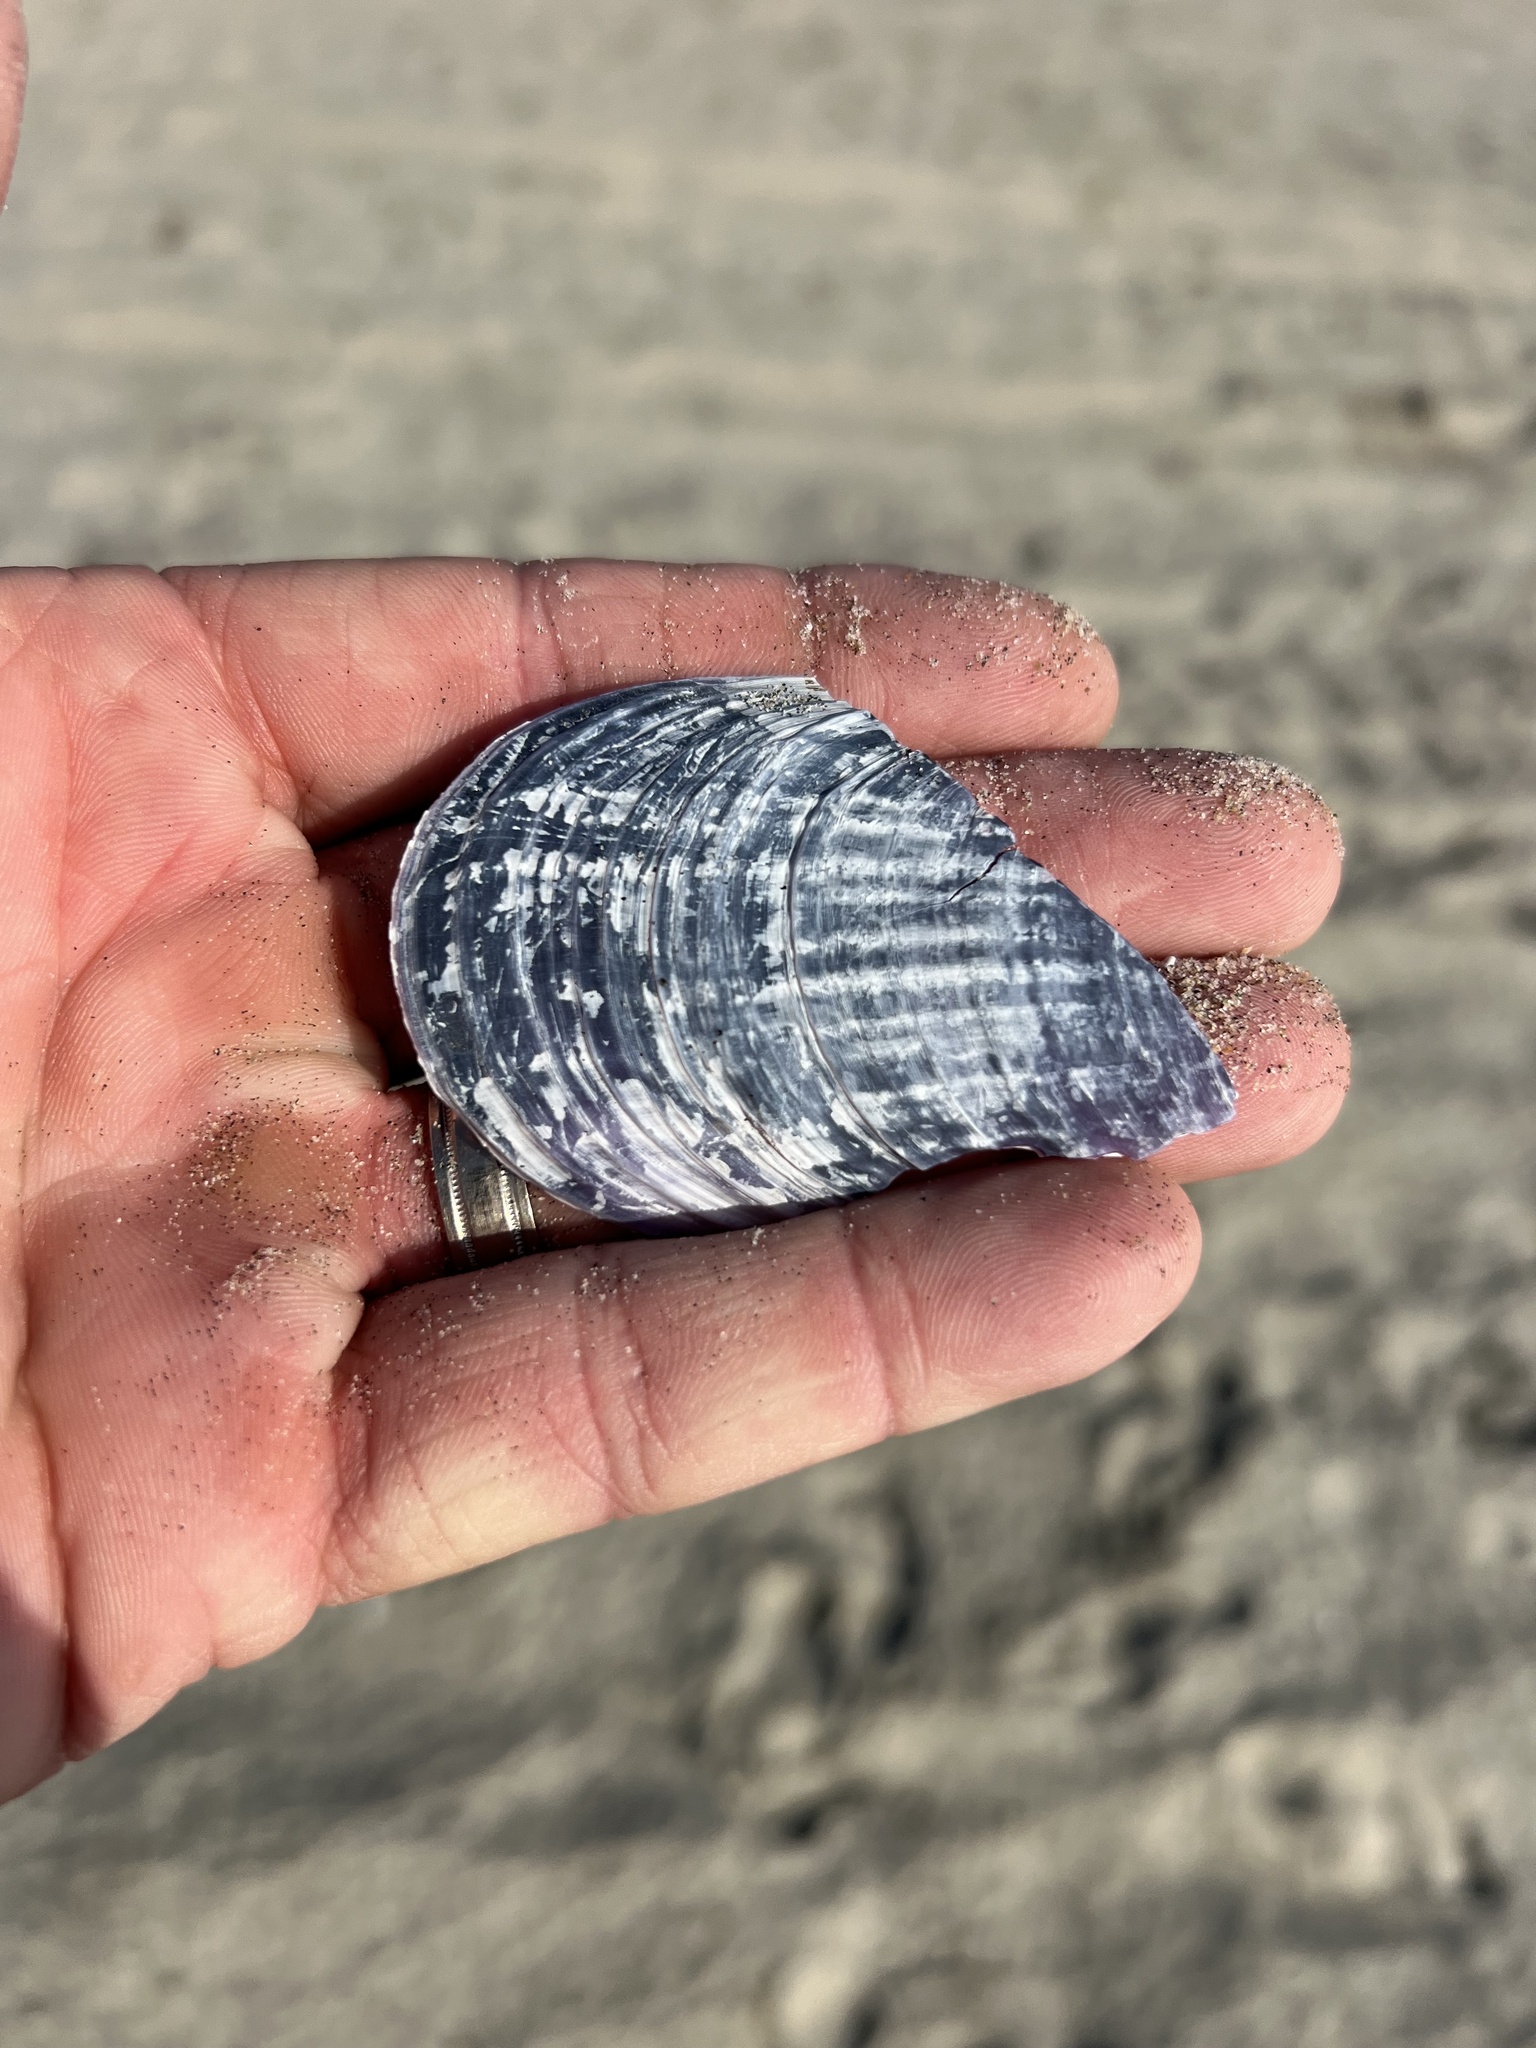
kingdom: Animalia
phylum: Mollusca
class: Bivalvia
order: Mytilida
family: Mytilidae
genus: Mytilus
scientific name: Mytilus californianus
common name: California mussel
